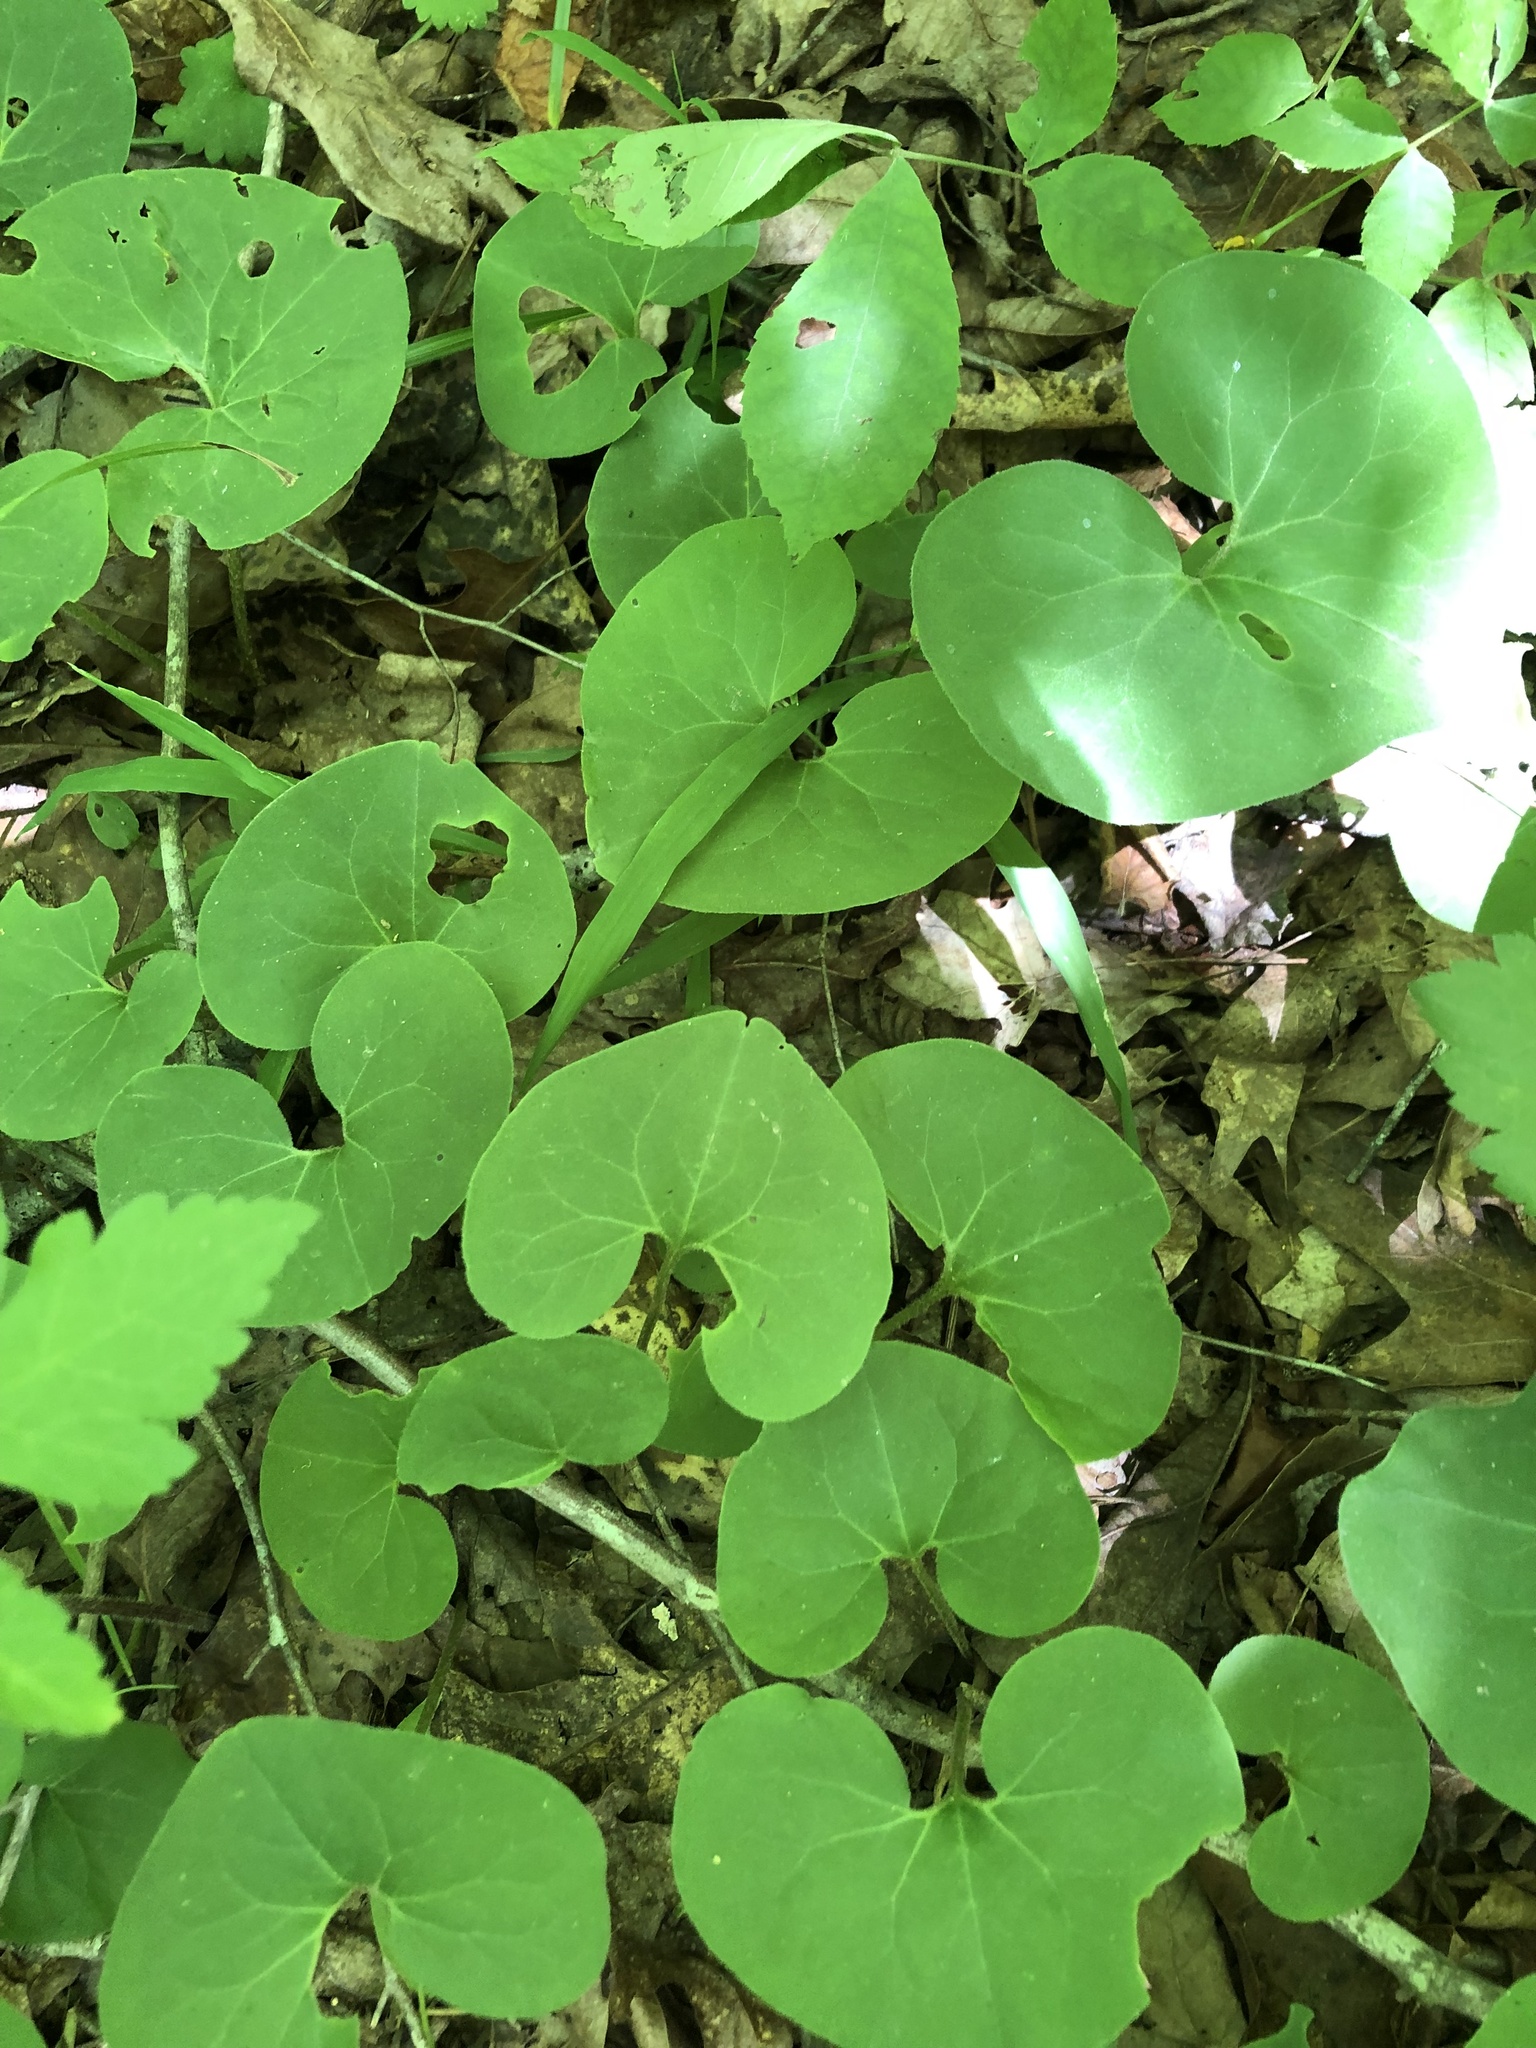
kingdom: Plantae
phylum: Tracheophyta
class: Magnoliopsida
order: Piperales
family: Aristolochiaceae
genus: Asarum
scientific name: Asarum canadense
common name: Wild ginger
